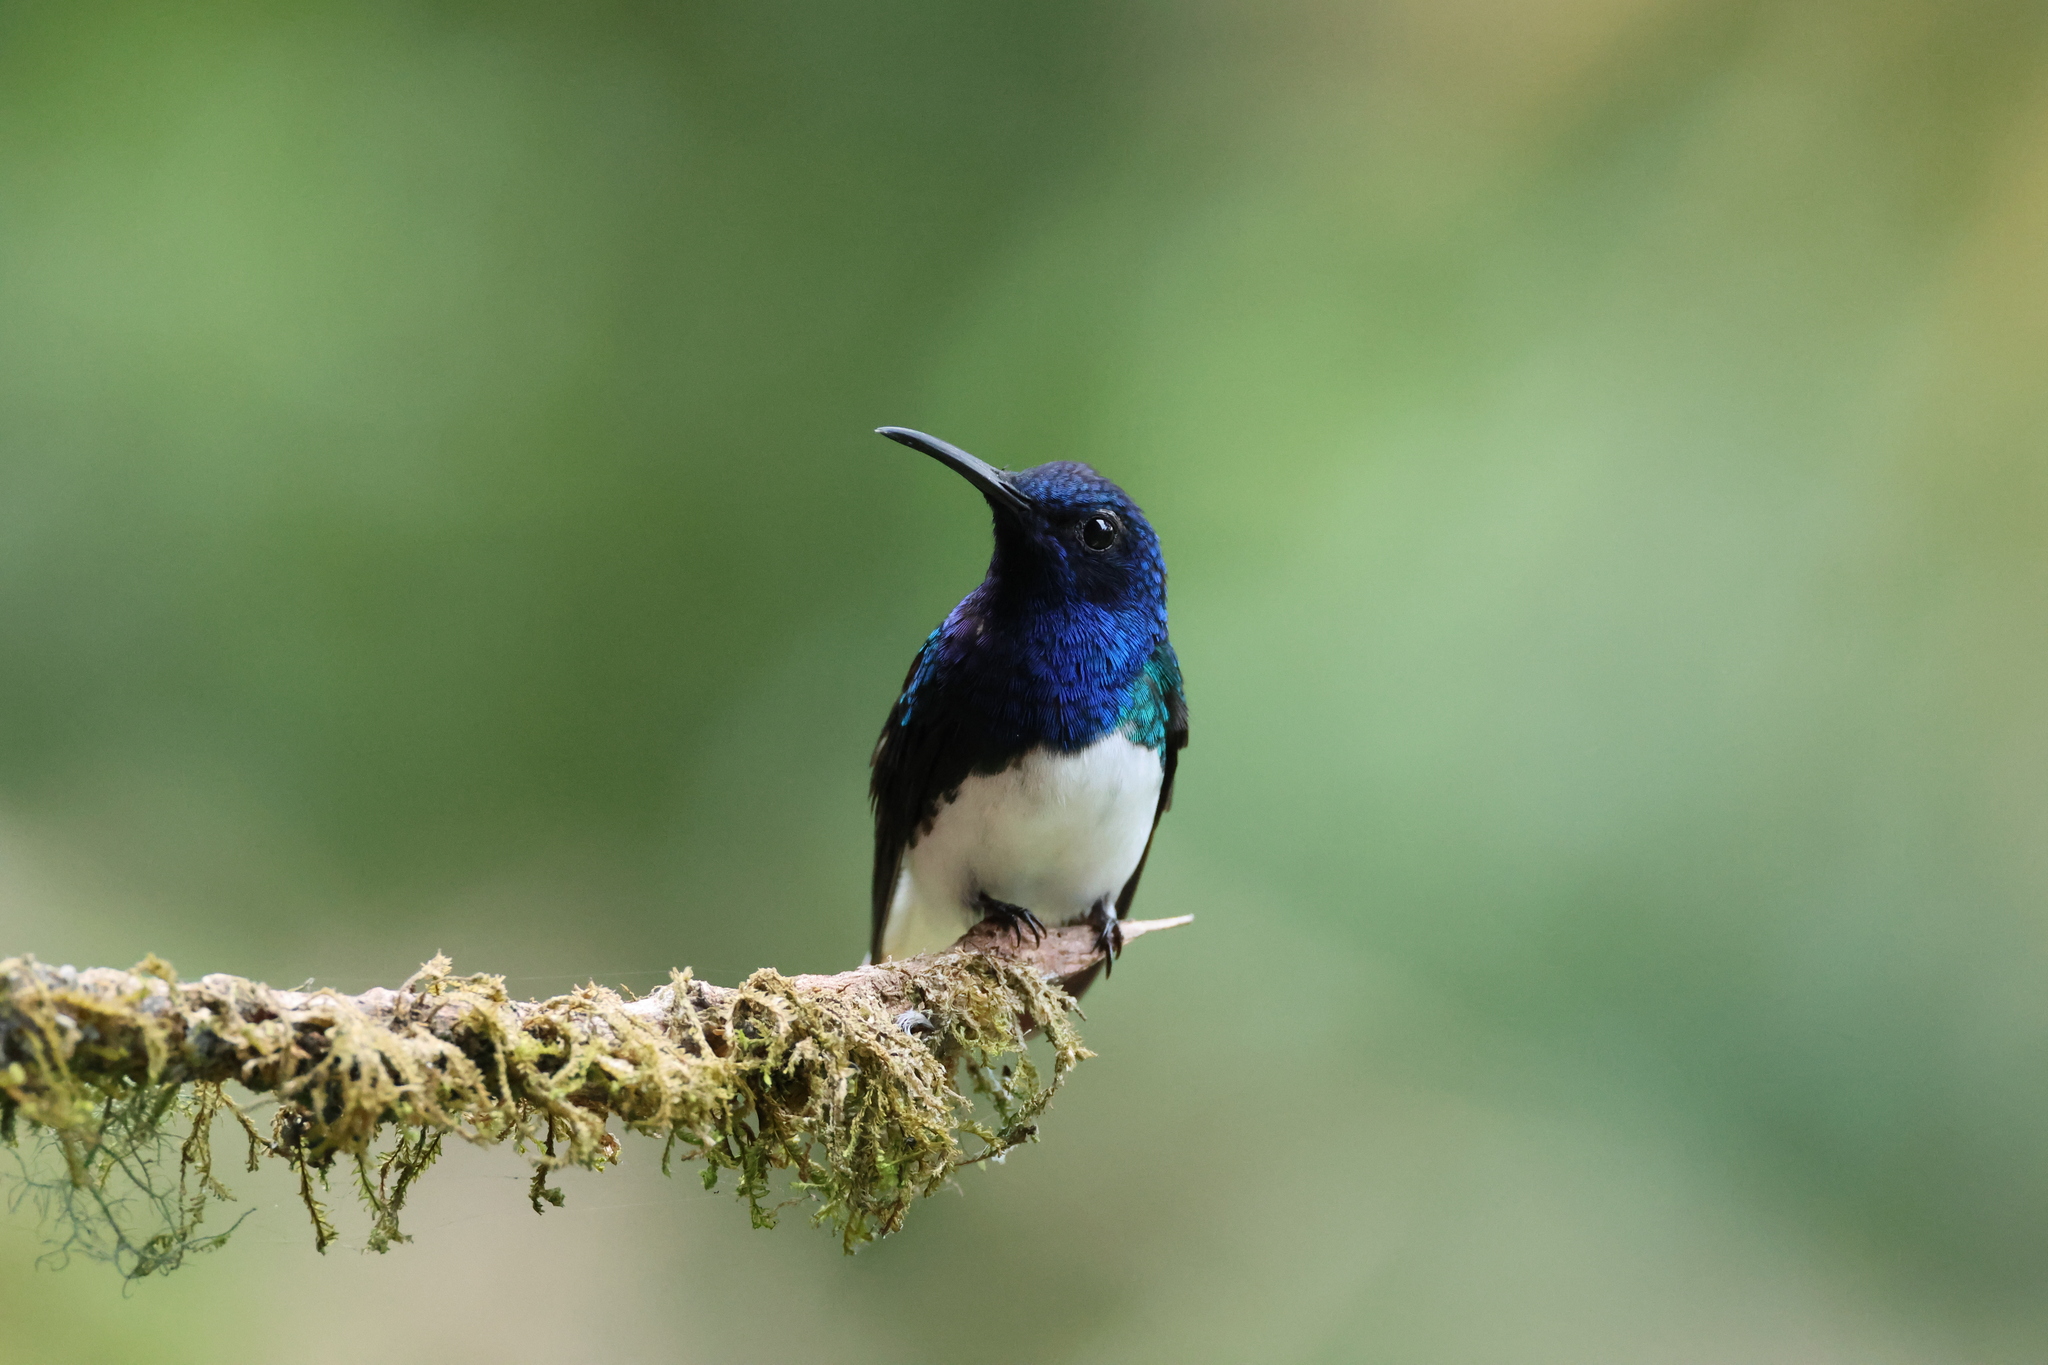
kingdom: Animalia
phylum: Chordata
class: Aves
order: Apodiformes
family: Trochilidae
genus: Florisuga
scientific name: Florisuga mellivora
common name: White-necked jacobin
